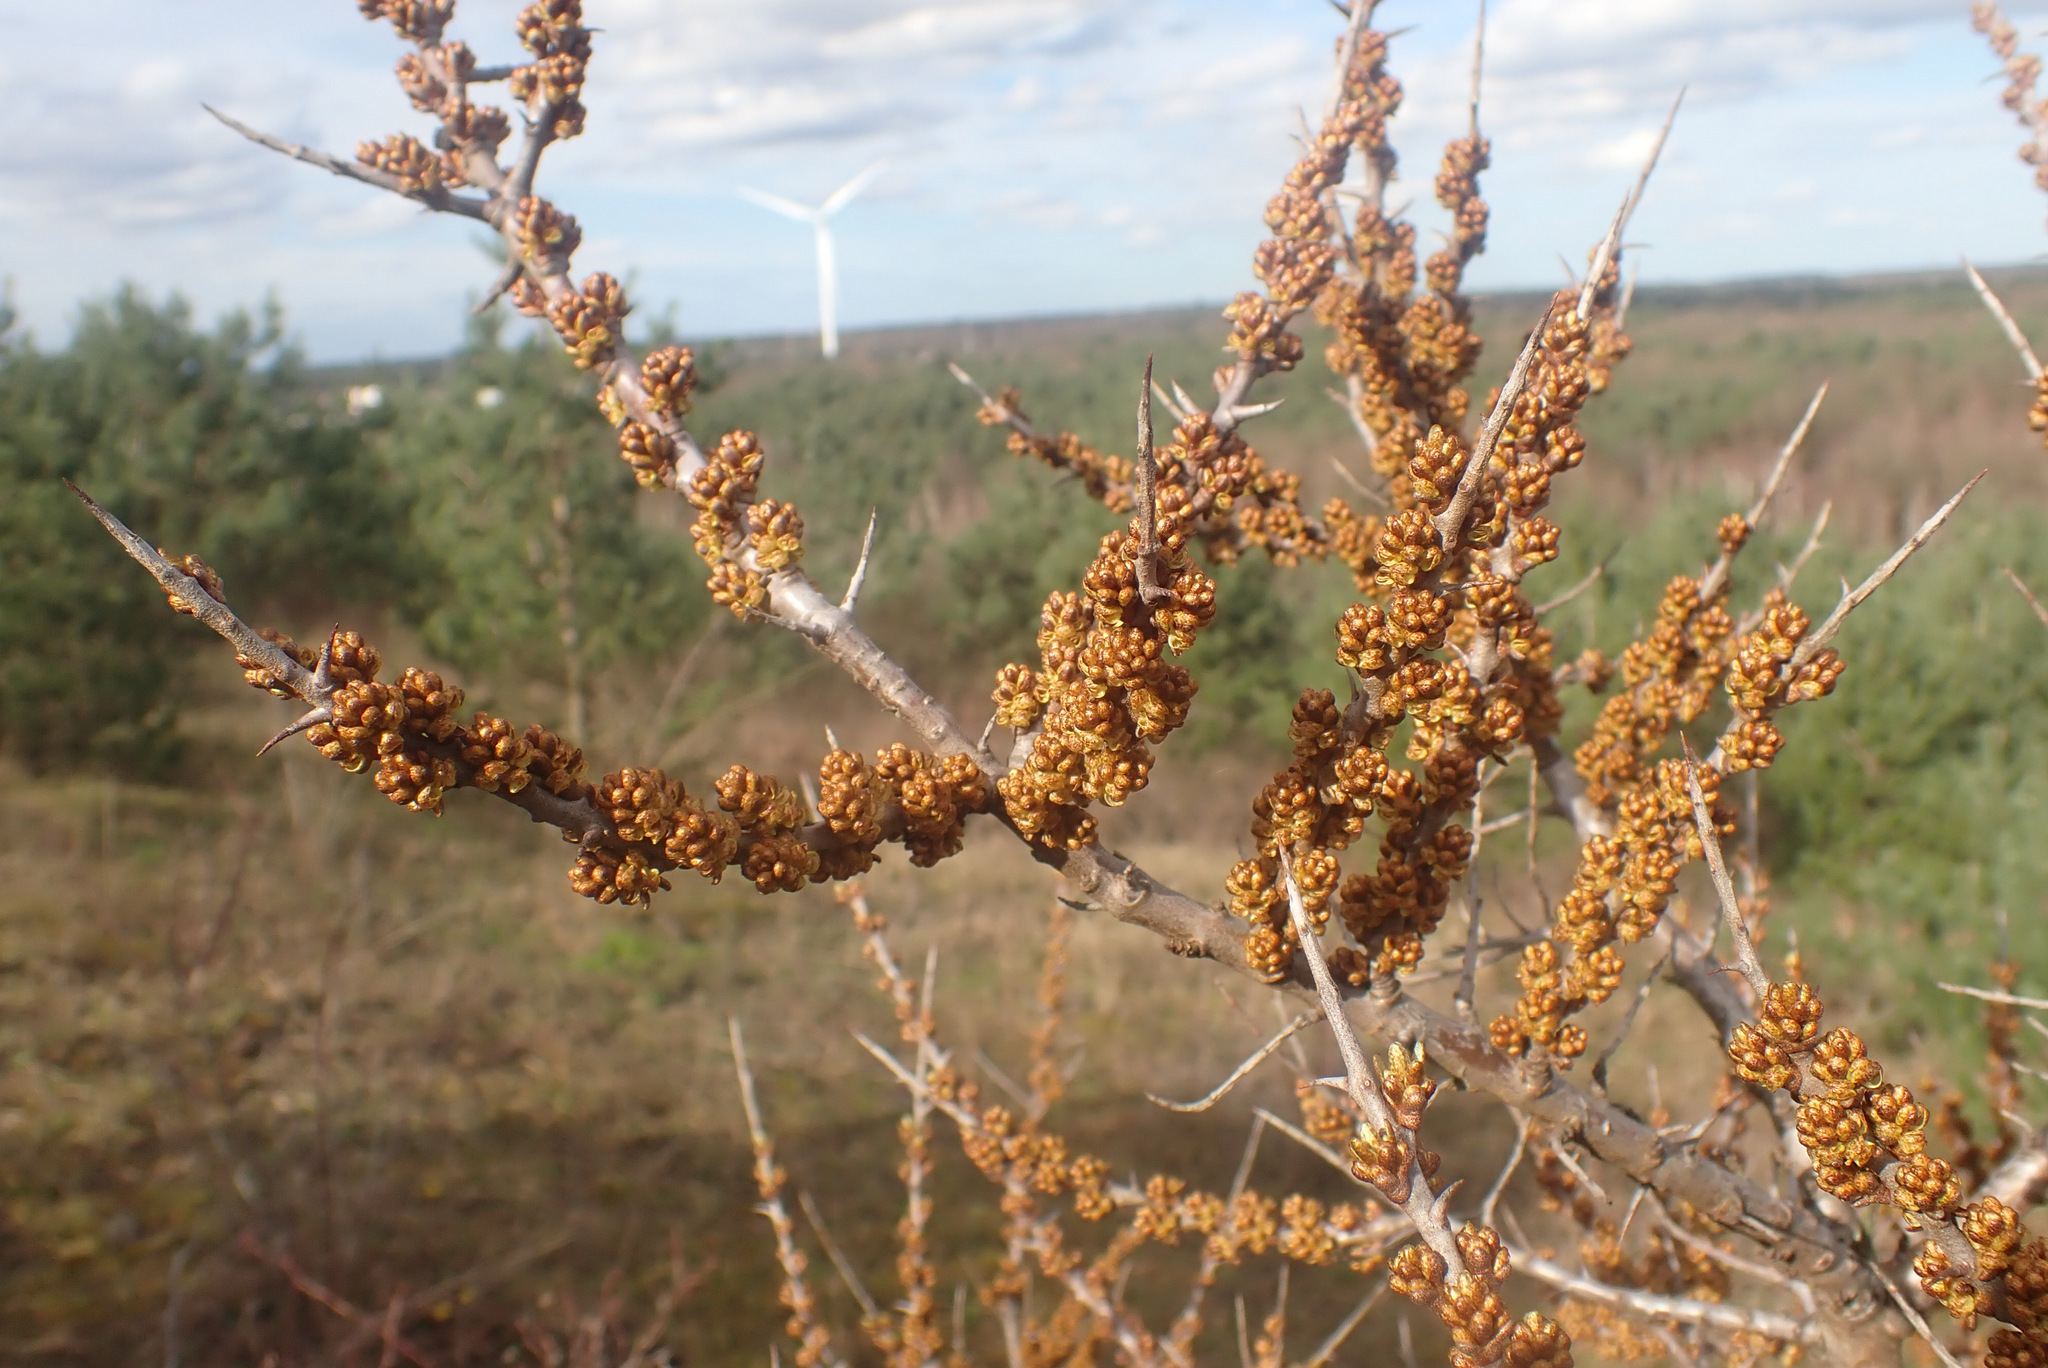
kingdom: Plantae
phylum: Tracheophyta
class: Magnoliopsida
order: Rosales
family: Elaeagnaceae
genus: Hippophae
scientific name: Hippophae rhamnoides
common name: Sea-buckthorn
